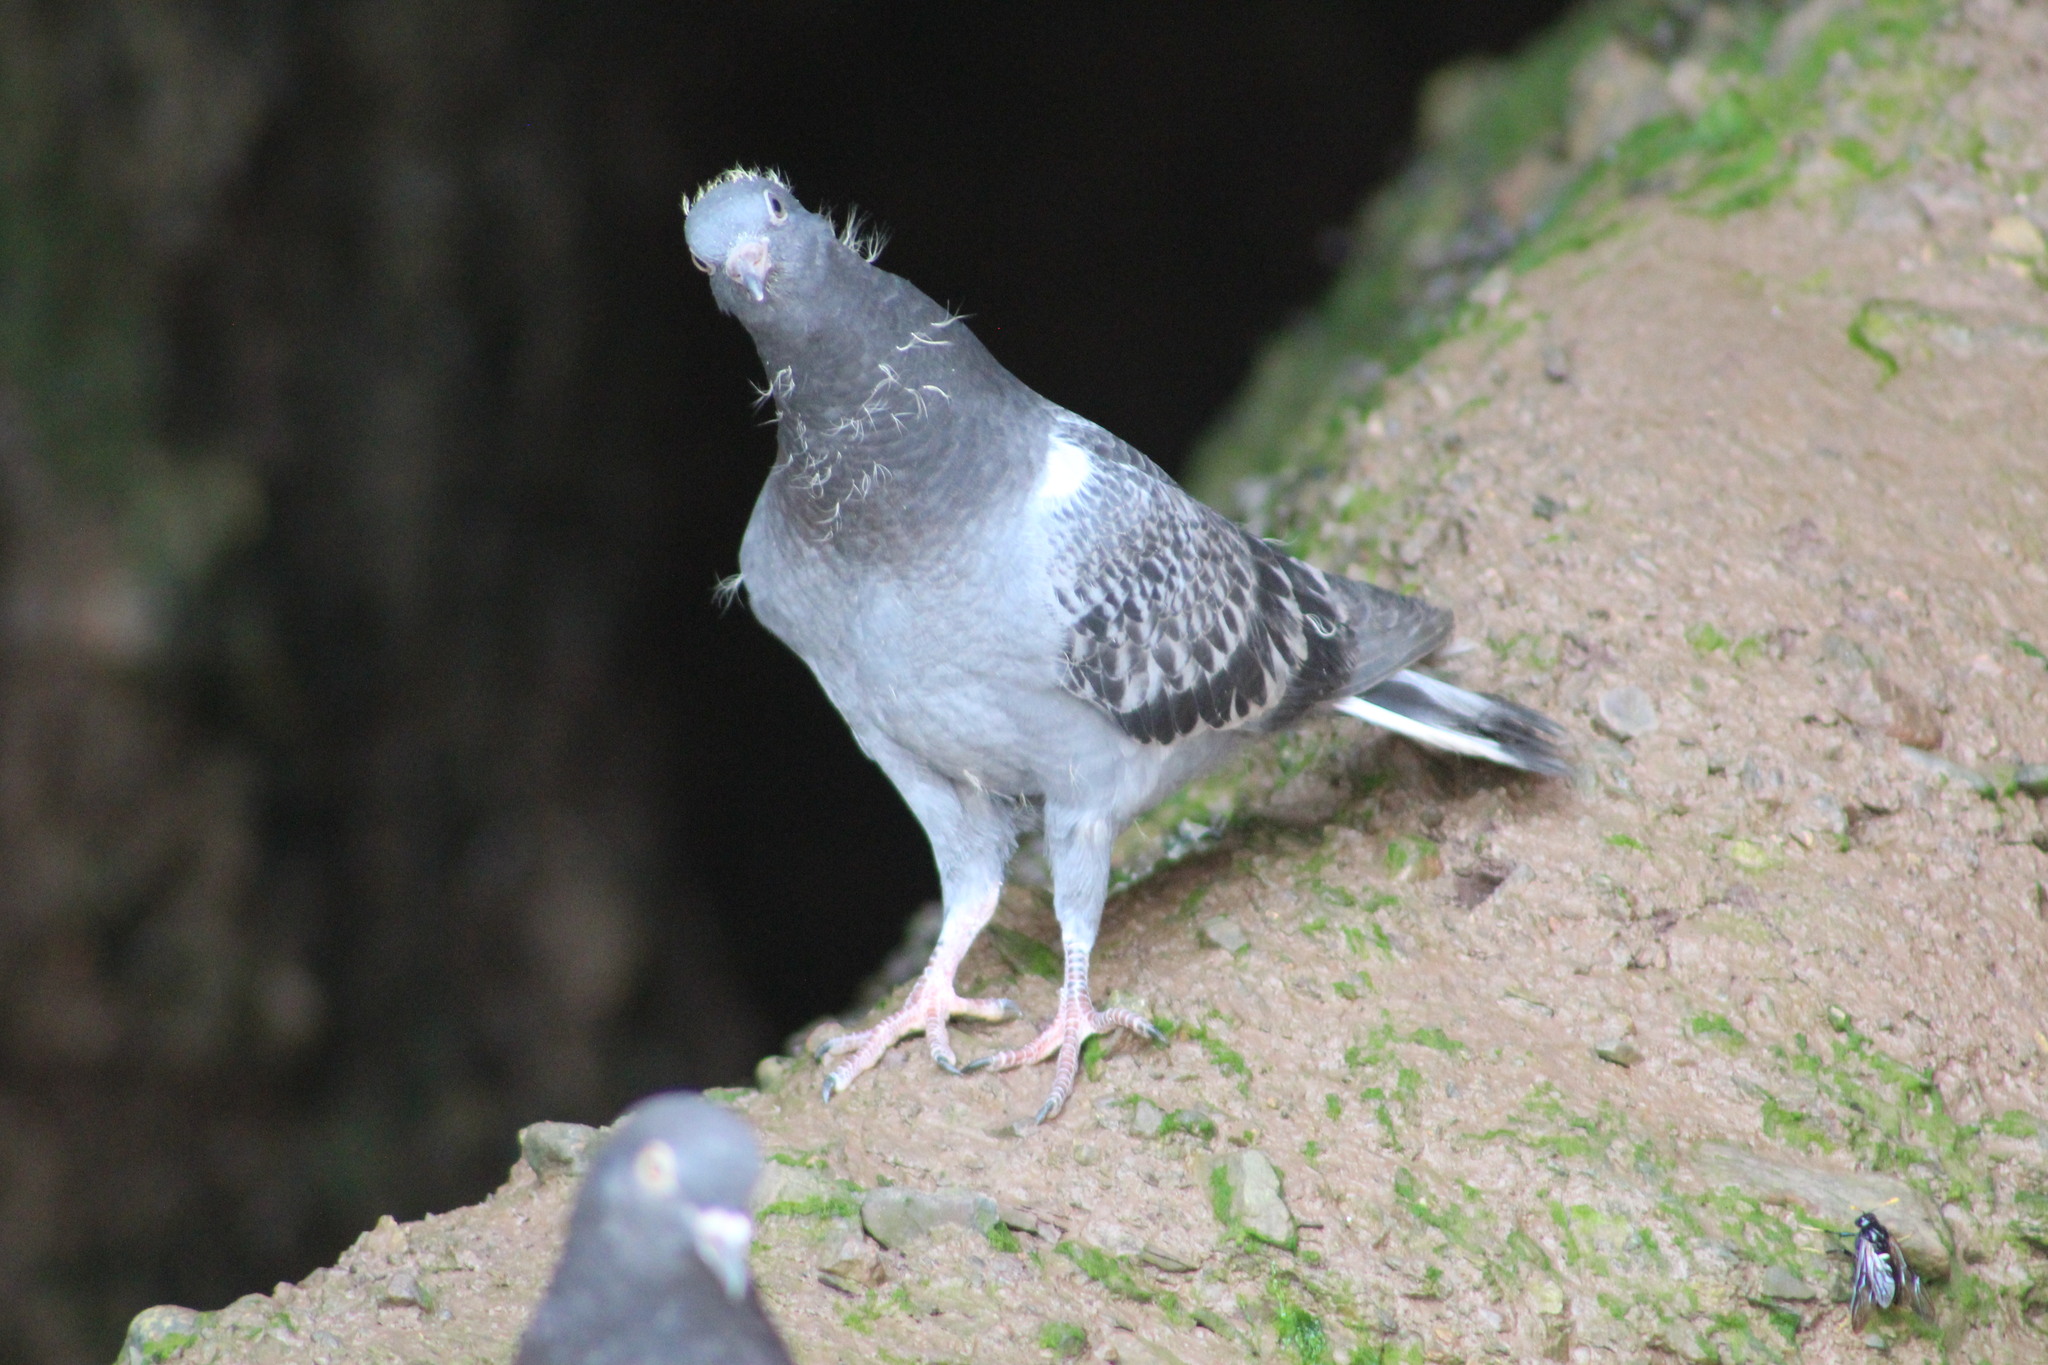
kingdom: Animalia
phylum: Chordata
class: Aves
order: Columbiformes
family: Columbidae
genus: Columba
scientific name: Columba livia
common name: Rock pigeon
